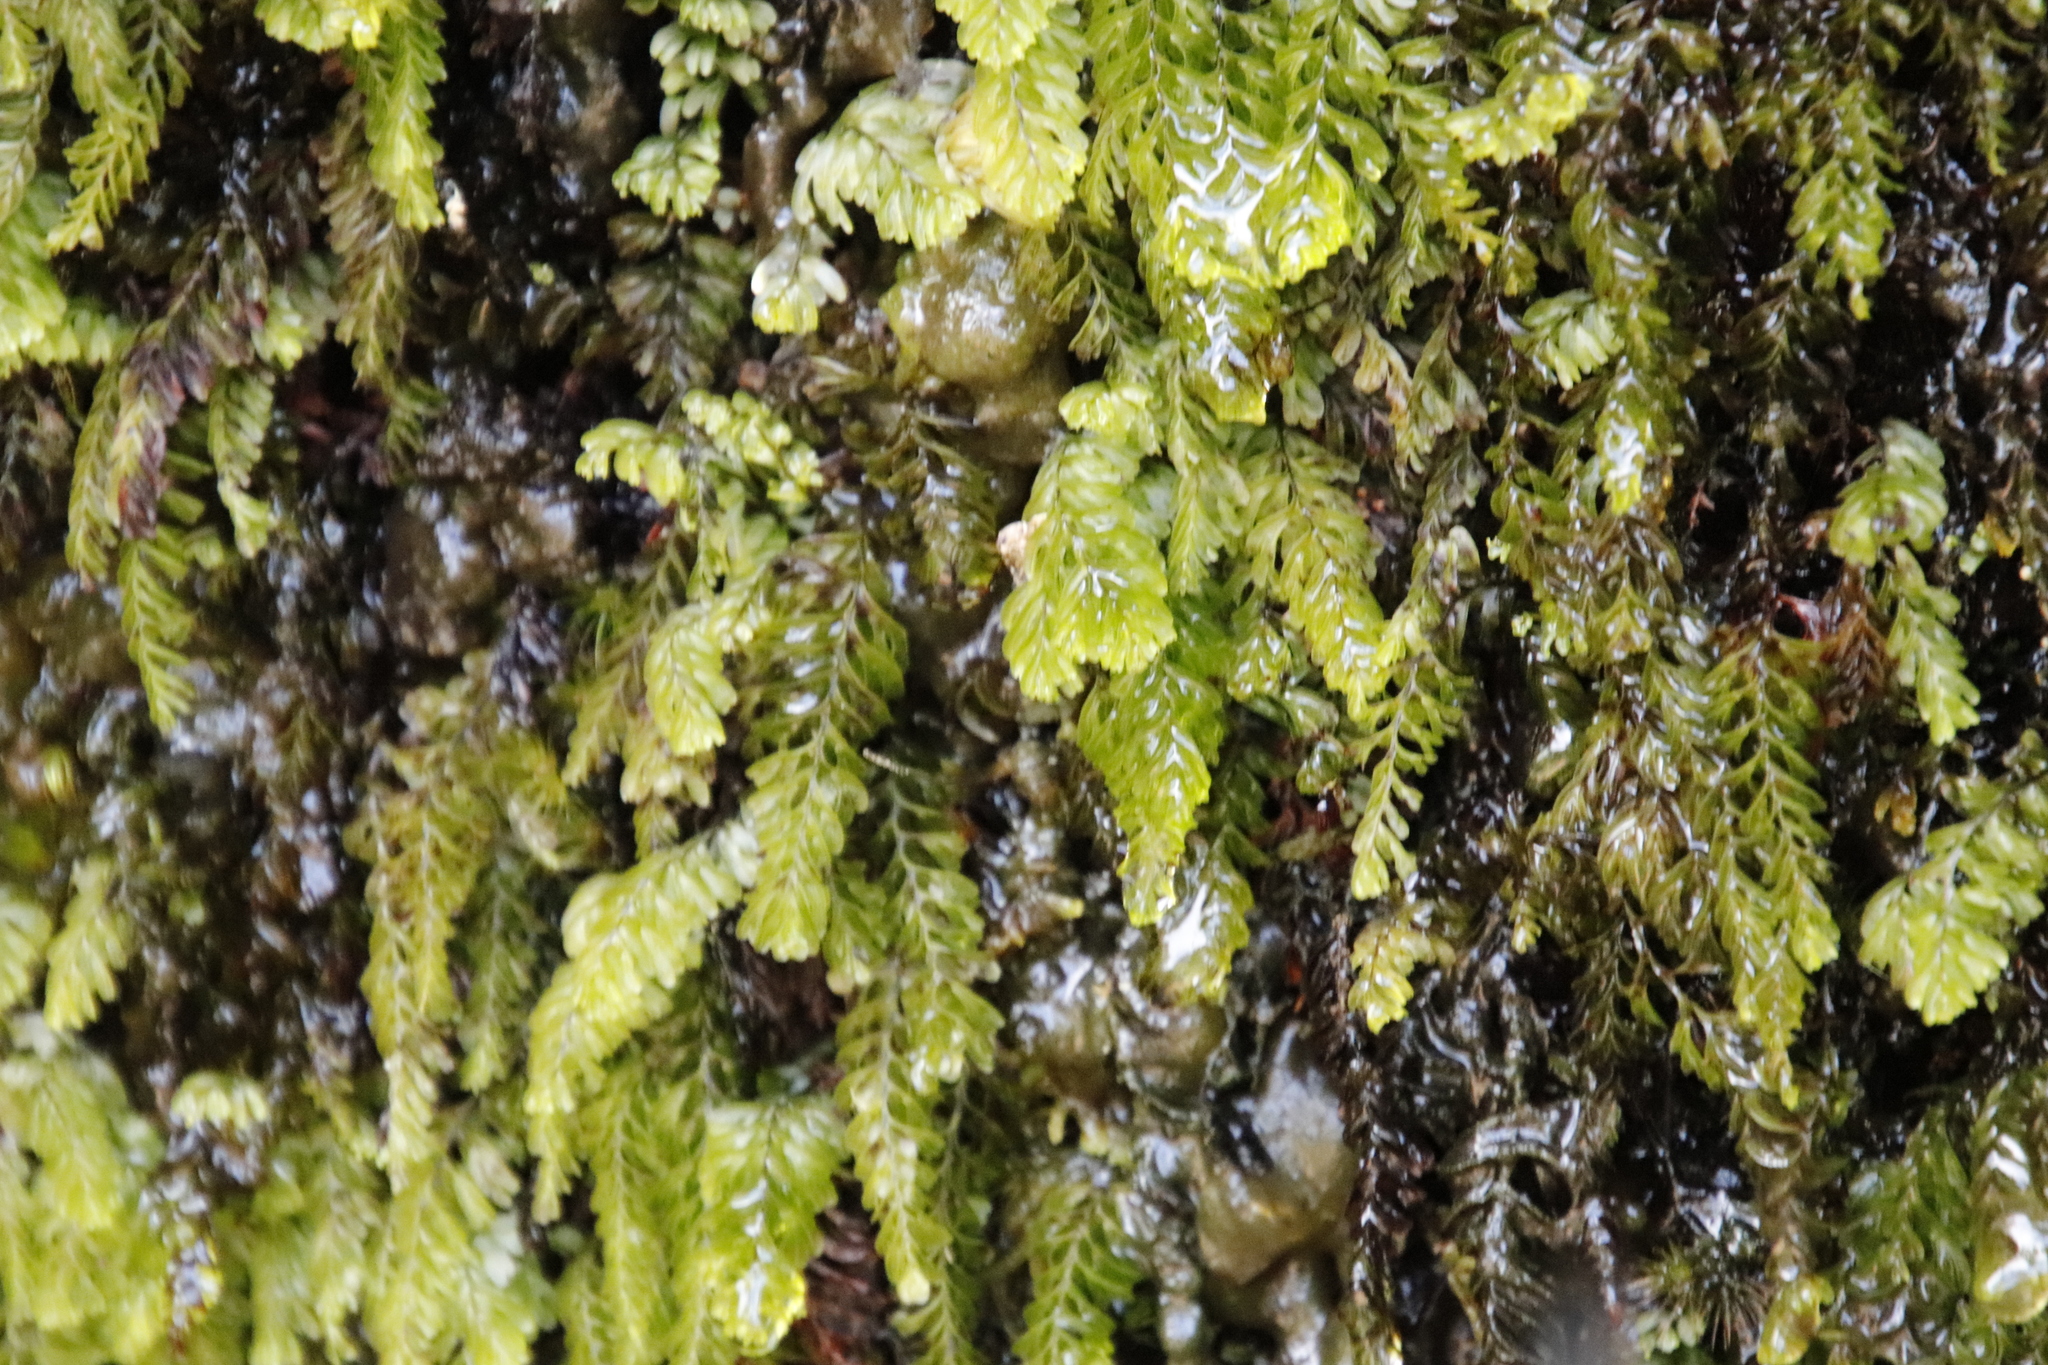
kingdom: Plantae
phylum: Tracheophyta
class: Polypodiopsida
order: Hymenophyllales
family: Hymenophyllaceae
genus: Hymenophyllum
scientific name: Hymenophyllum capense
